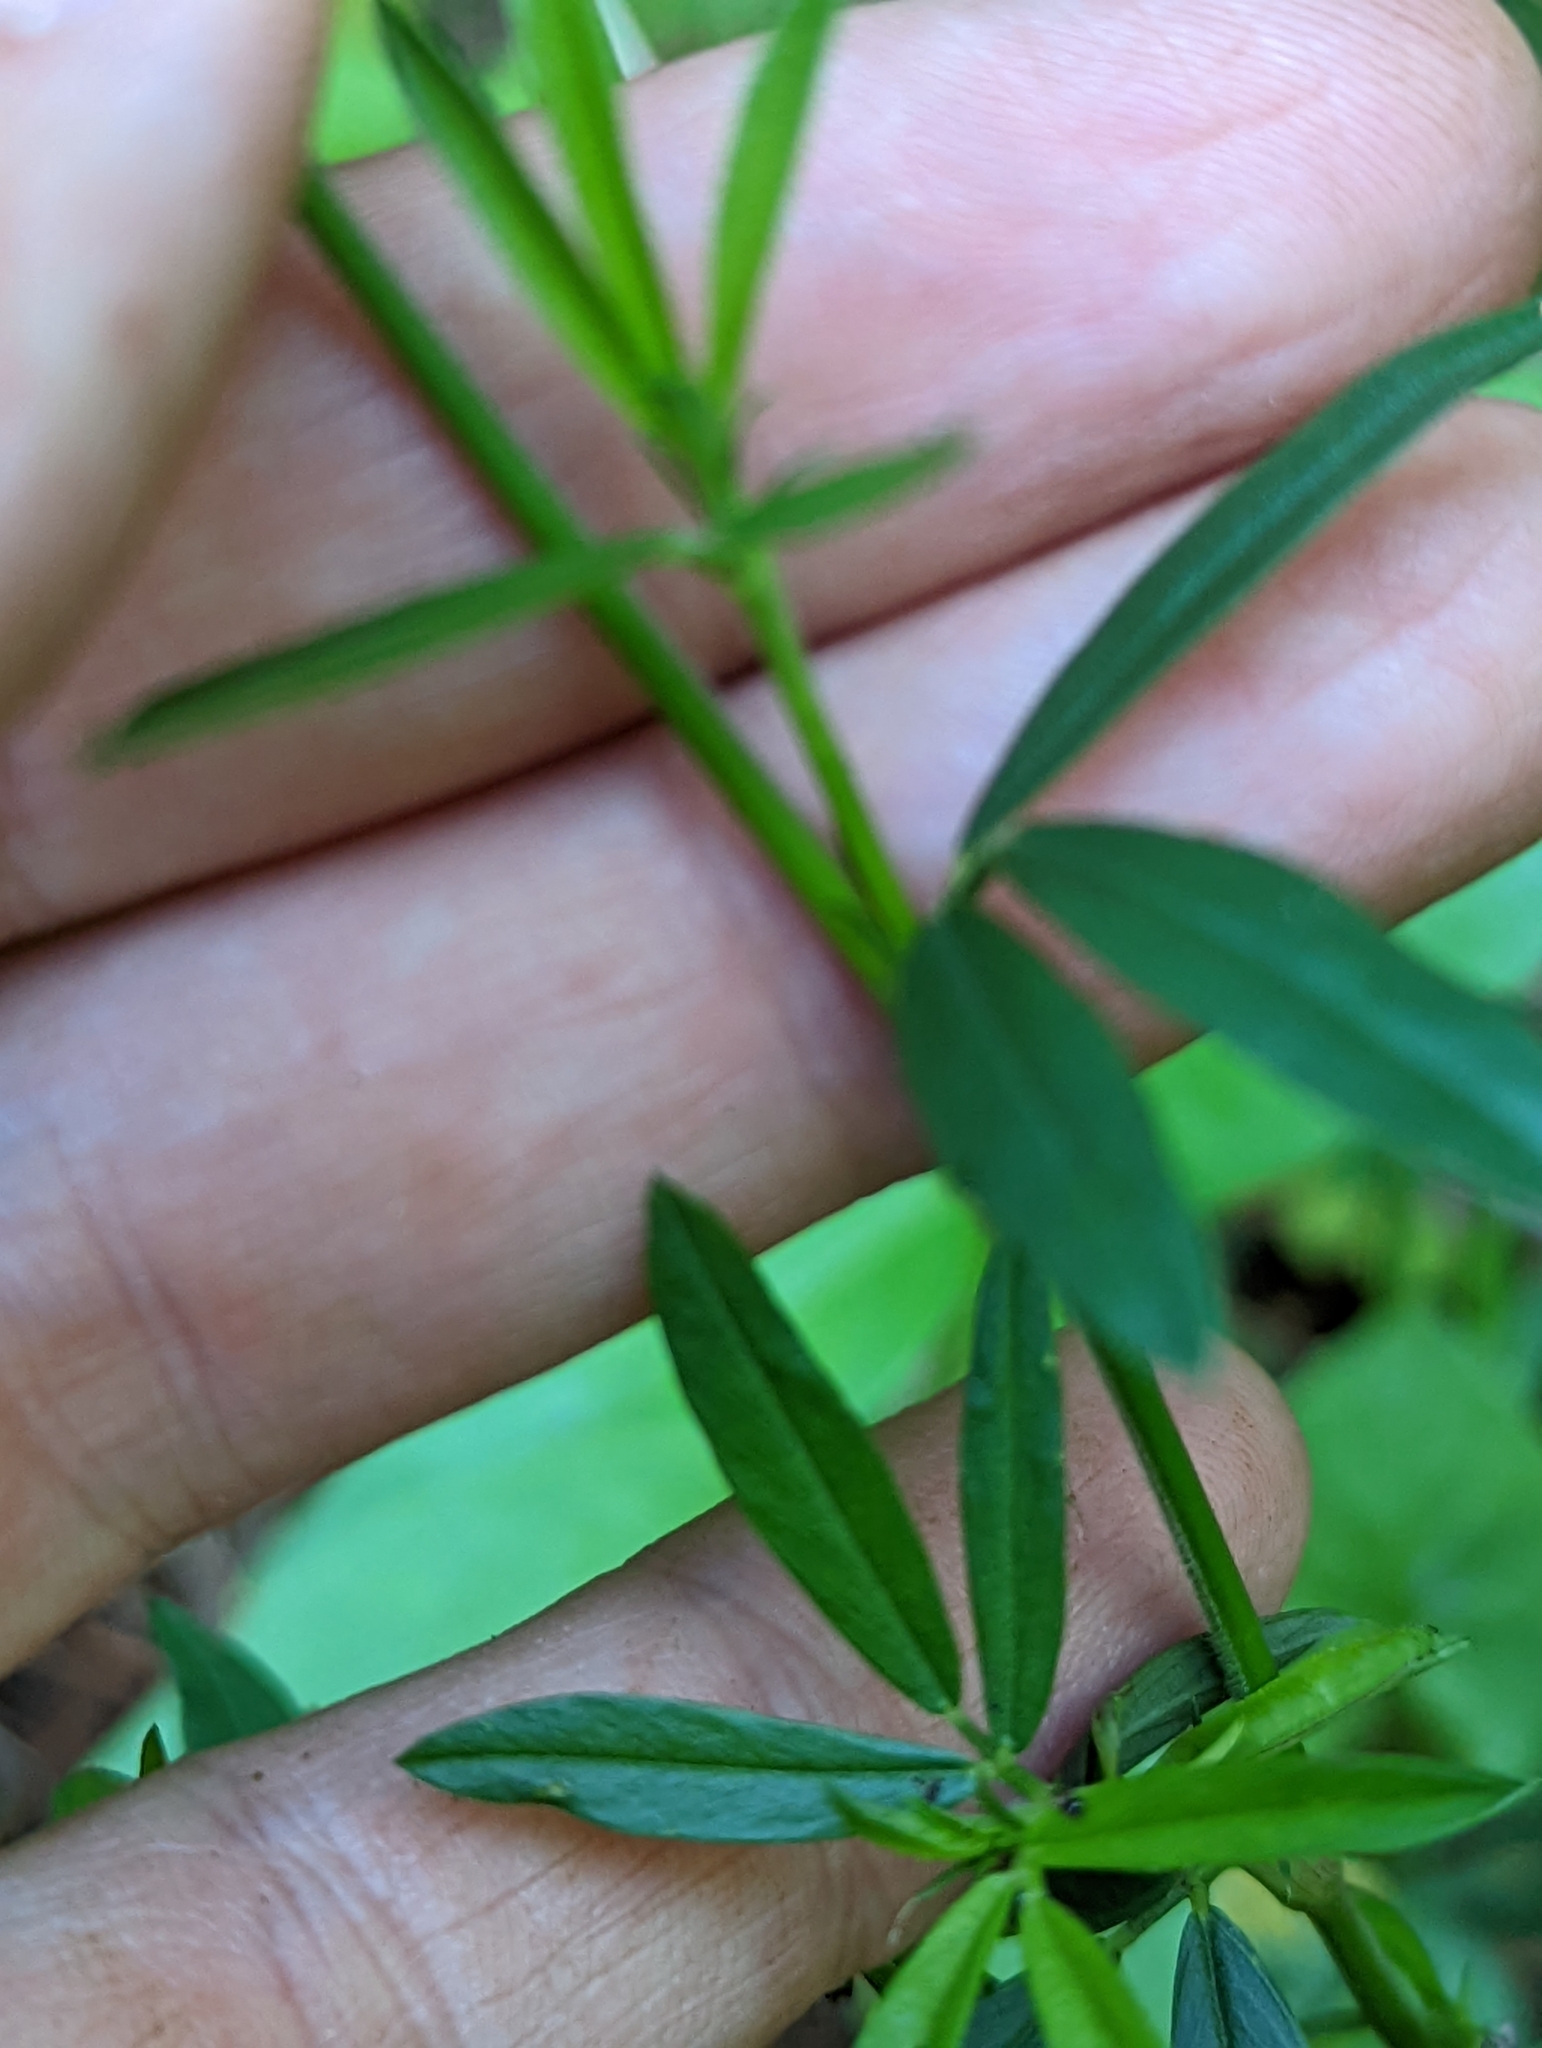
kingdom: Plantae
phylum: Tracheophyta
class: Magnoliopsida
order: Fabales
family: Fabaceae
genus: Stylosanthes
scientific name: Stylosanthes biflora
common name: Two-flower pencil-flower
